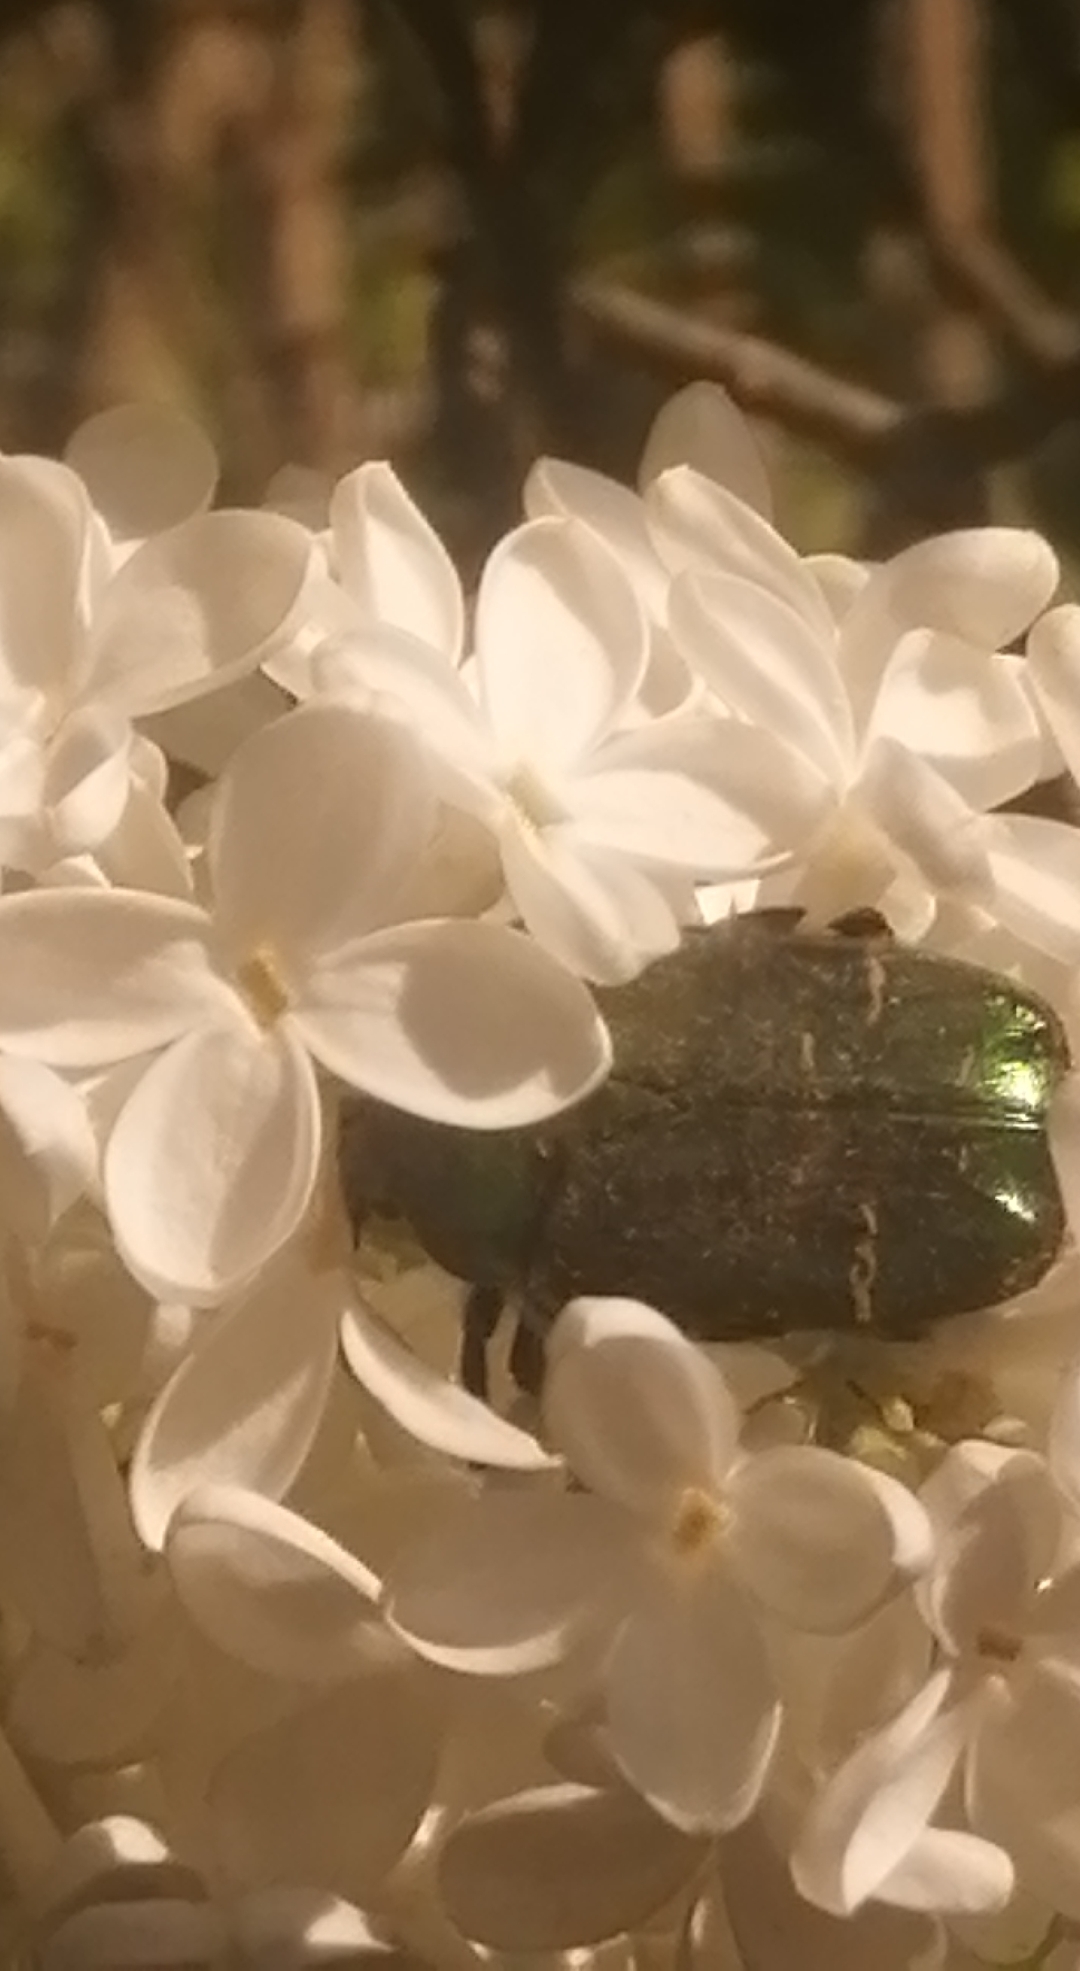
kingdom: Animalia
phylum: Arthropoda
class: Insecta
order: Coleoptera
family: Scarabaeidae
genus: Cetonia
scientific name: Cetonia aurata
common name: Rose chafer
